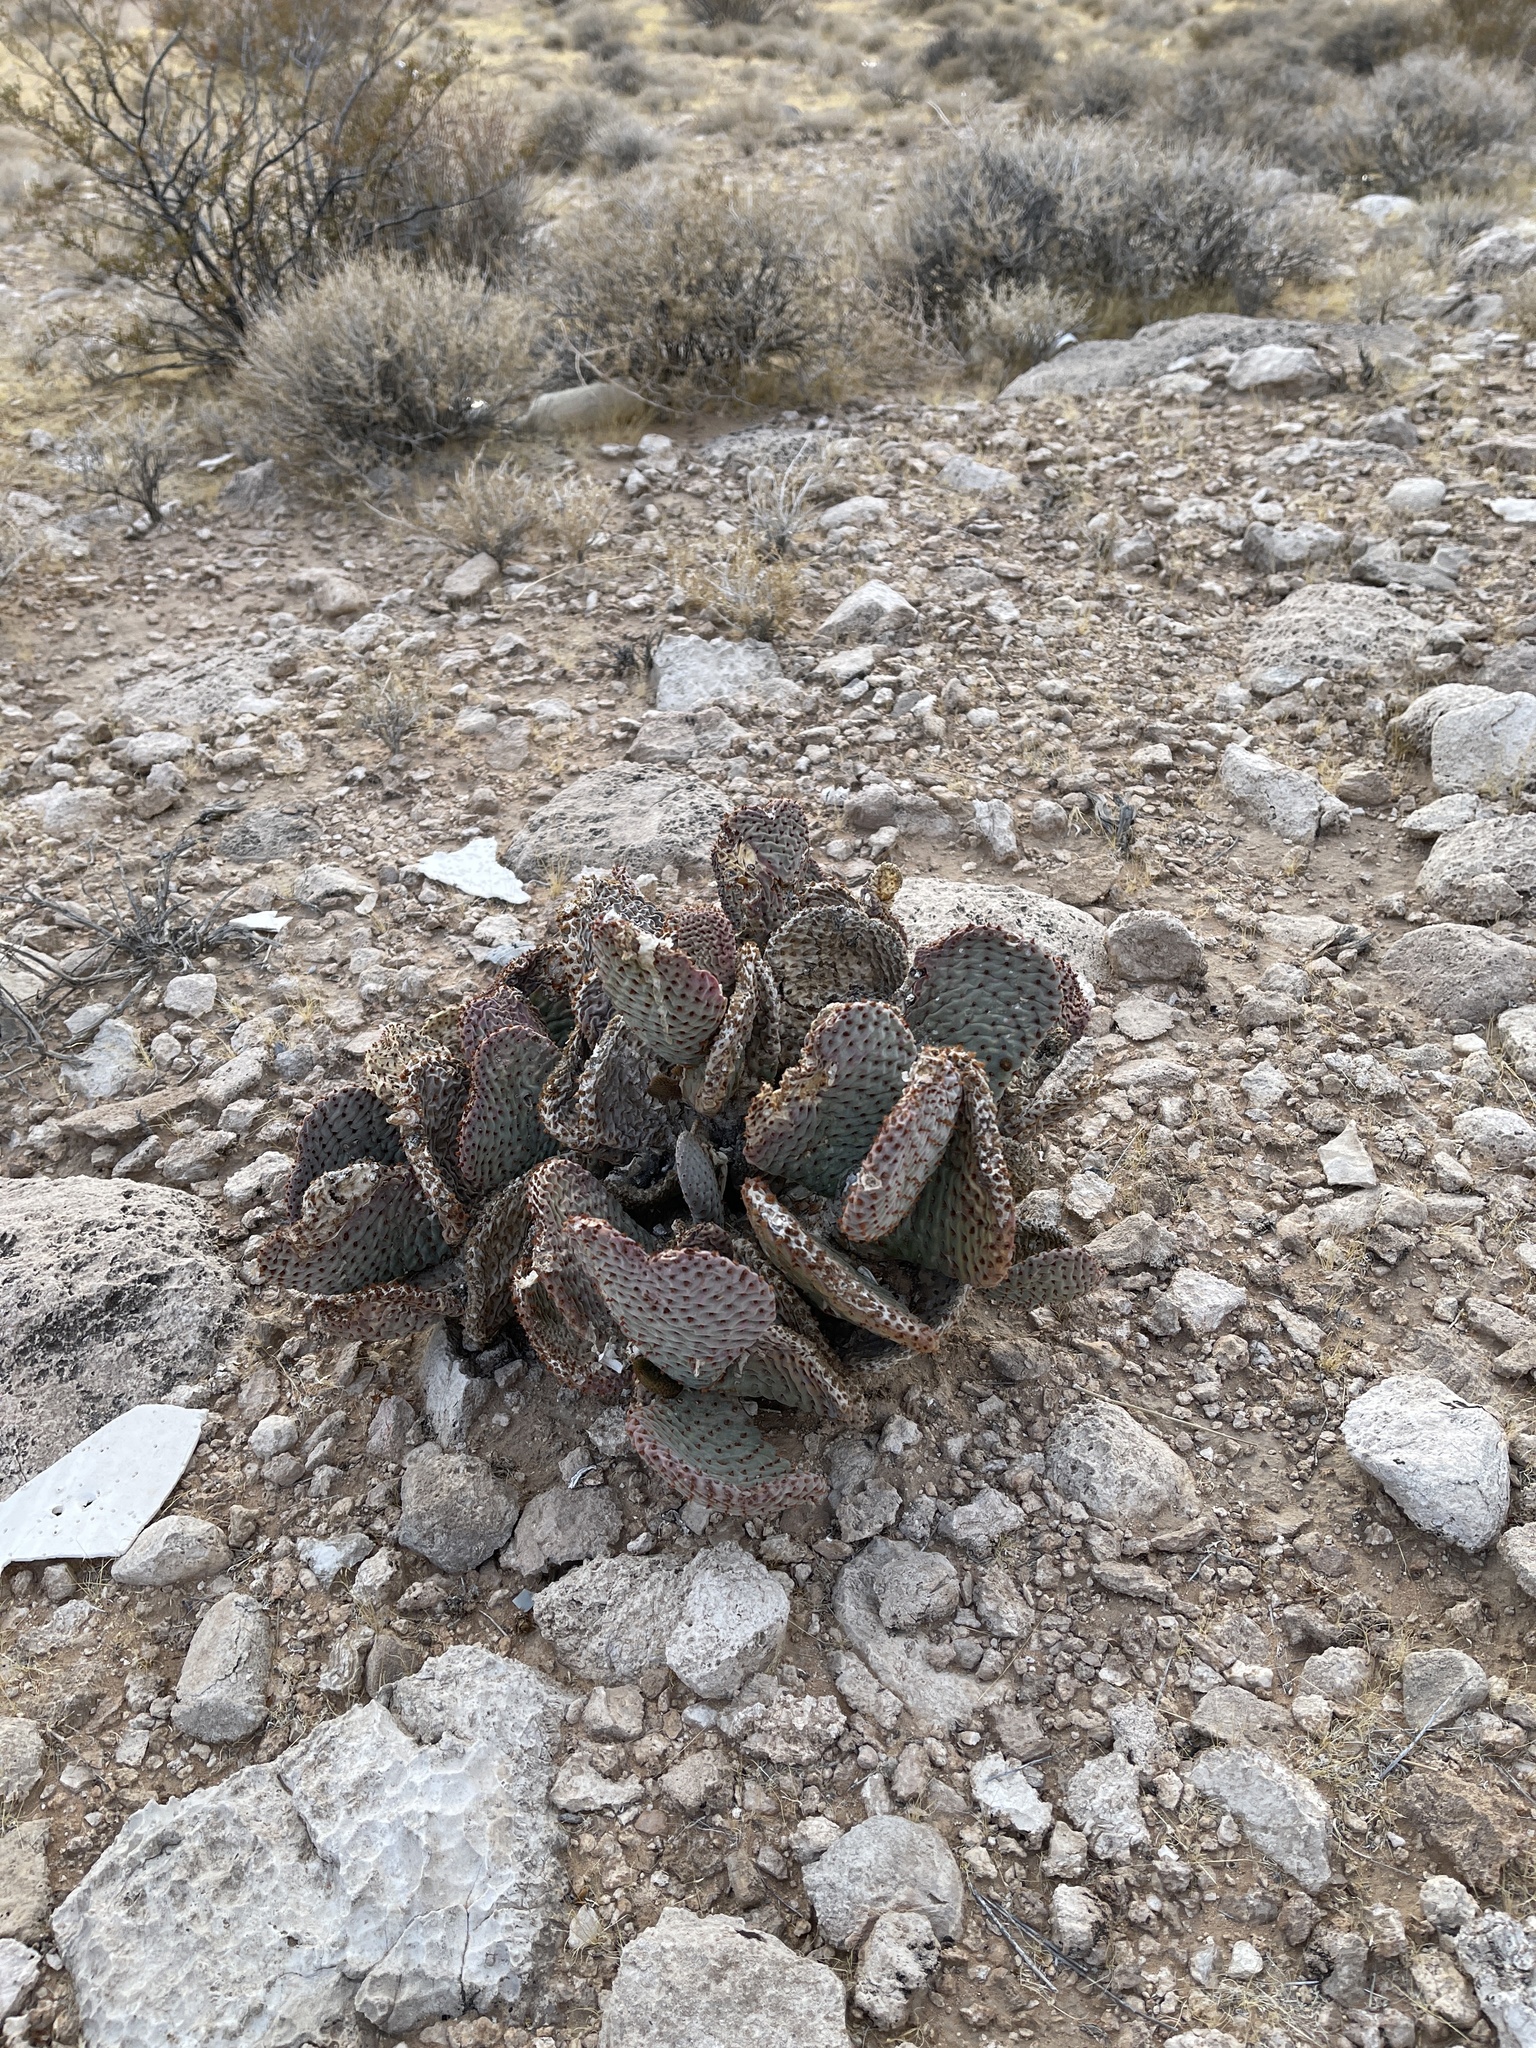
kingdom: Plantae
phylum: Tracheophyta
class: Magnoliopsida
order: Caryophyllales
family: Cactaceae
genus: Opuntia
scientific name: Opuntia basilaris
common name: Beavertail prickly-pear
